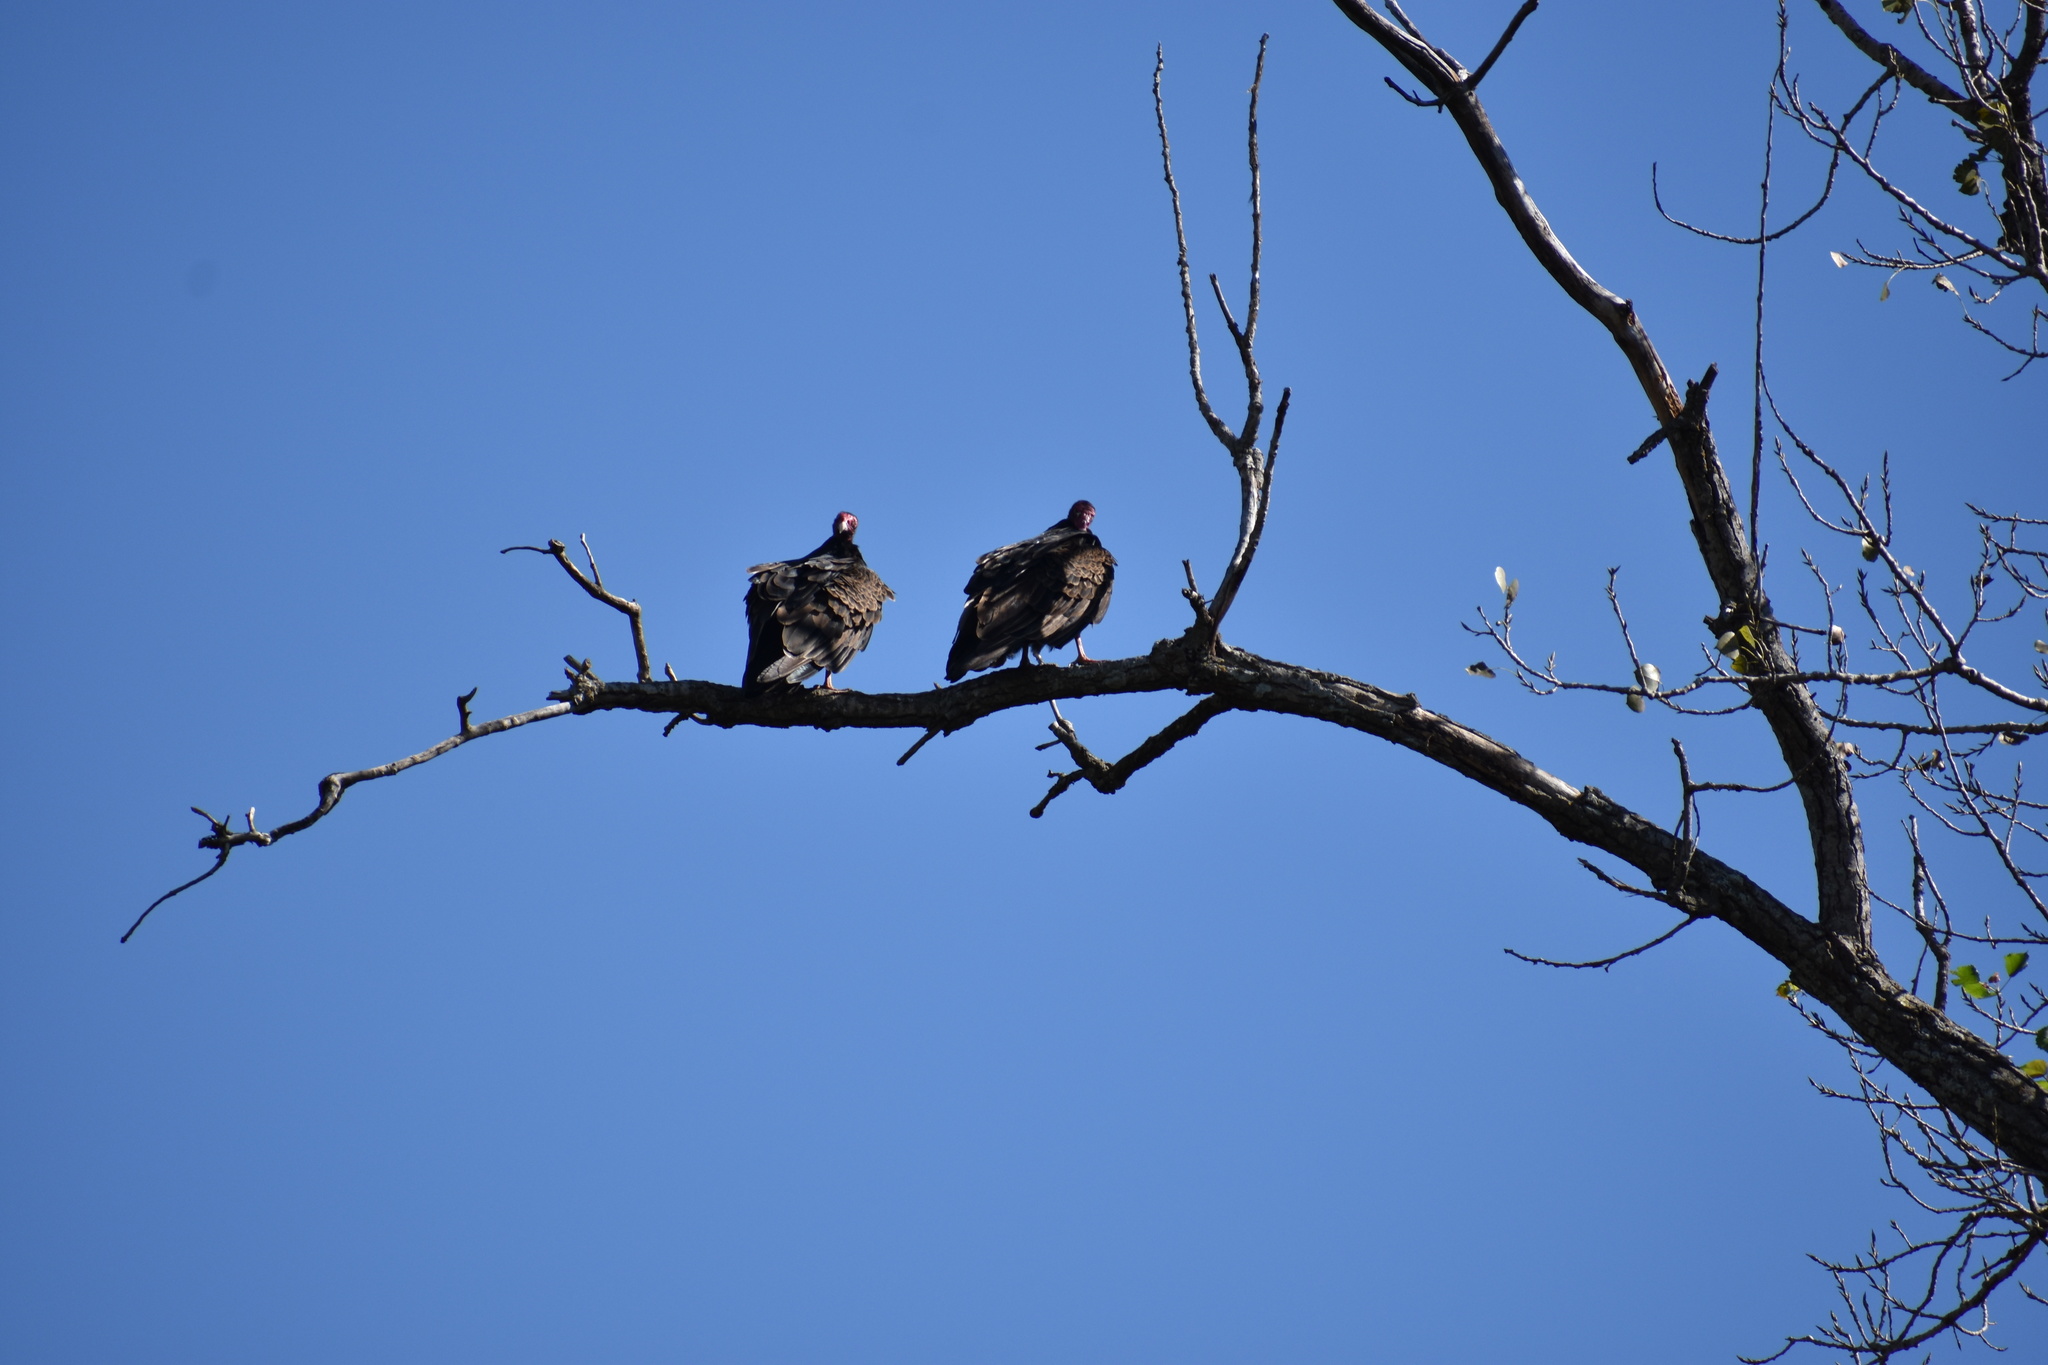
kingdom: Animalia
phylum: Chordata
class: Aves
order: Accipitriformes
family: Cathartidae
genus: Cathartes
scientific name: Cathartes aura
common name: Turkey vulture
